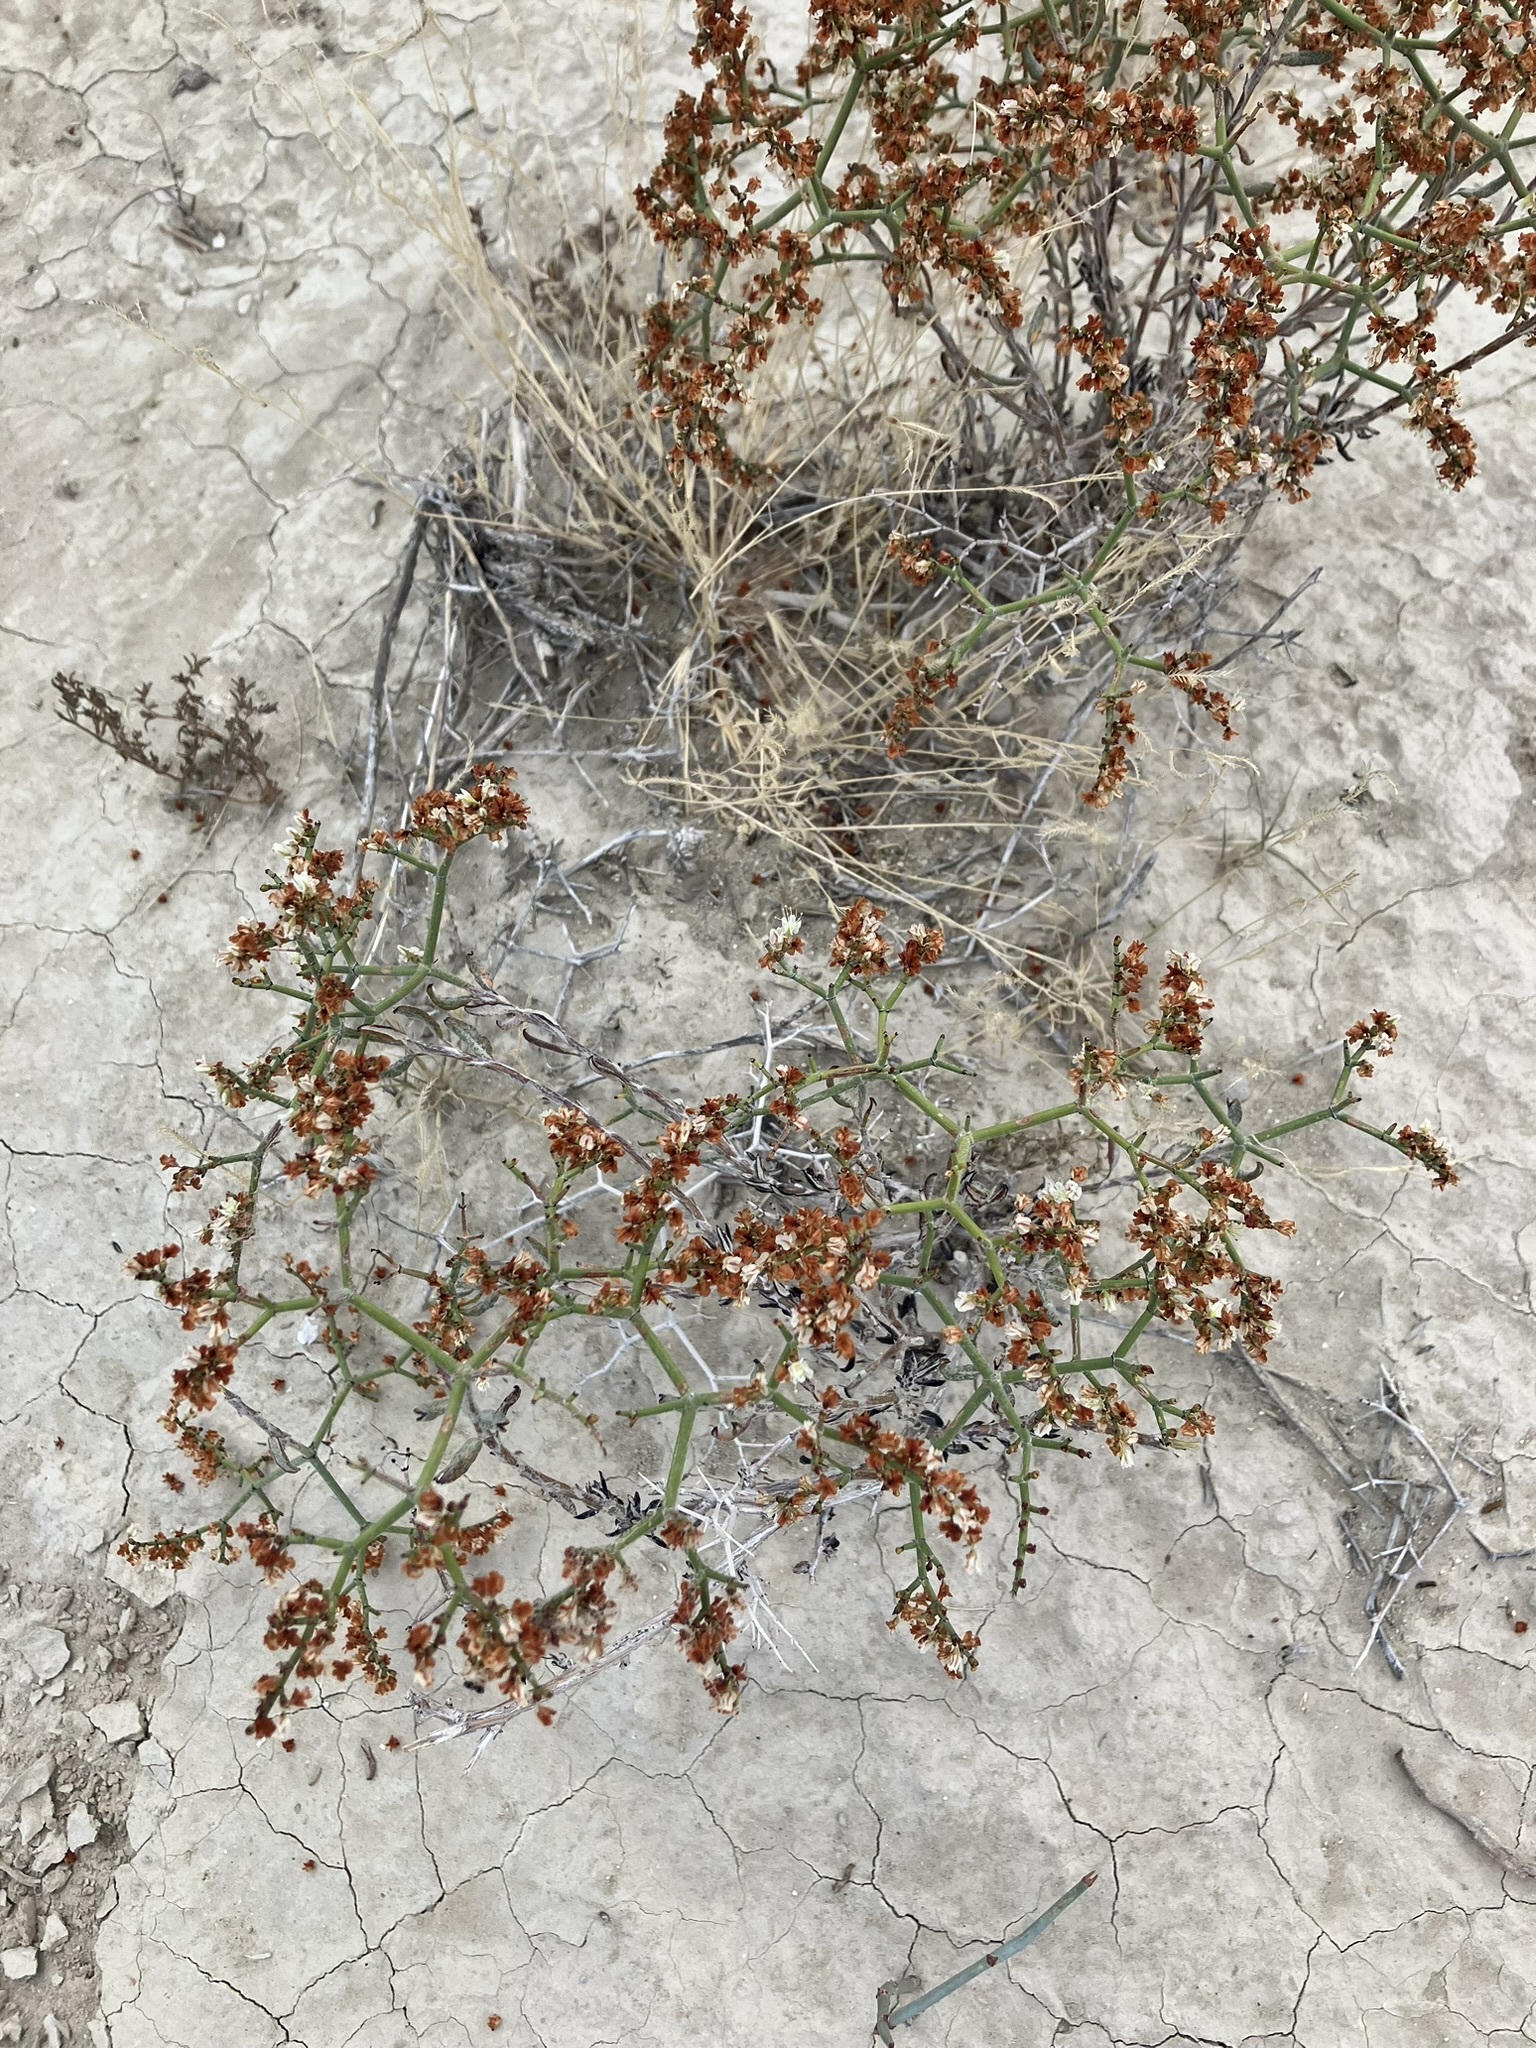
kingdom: Plantae
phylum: Tracheophyta
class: Magnoliopsida
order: Caryophyllales
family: Polygonaceae
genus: Eriogonum
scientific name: Eriogonum heermannii
